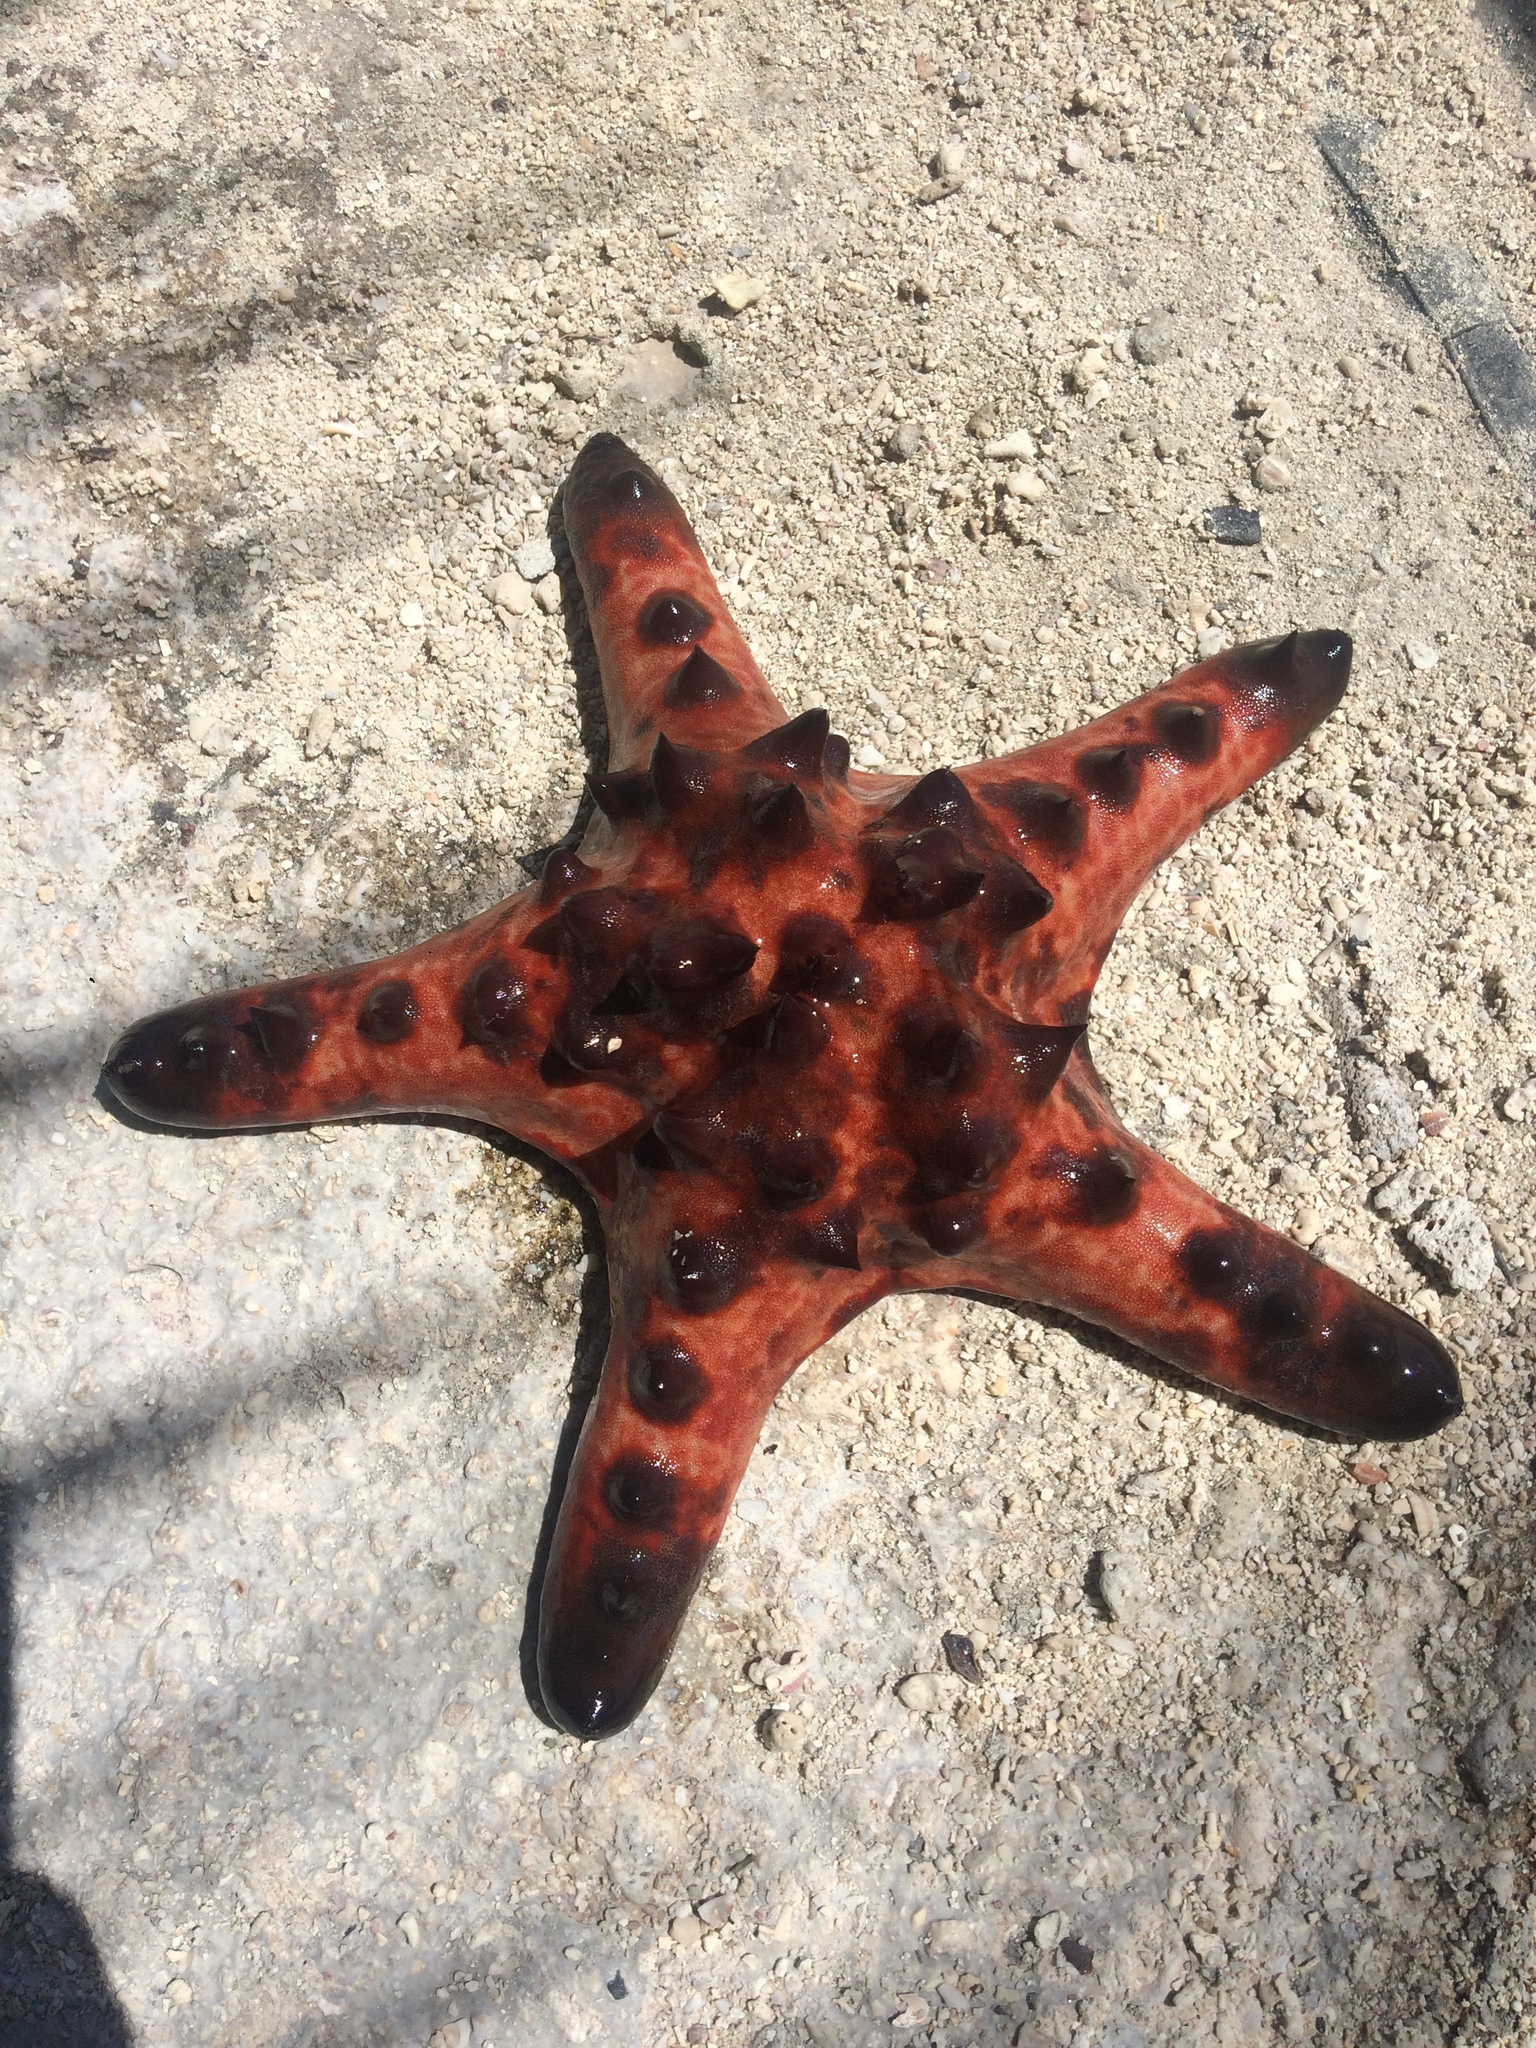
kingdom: Animalia
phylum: Echinodermata
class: Asteroidea
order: Valvatida
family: Oreasteridae
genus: Protoreaster
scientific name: Protoreaster nodosus
